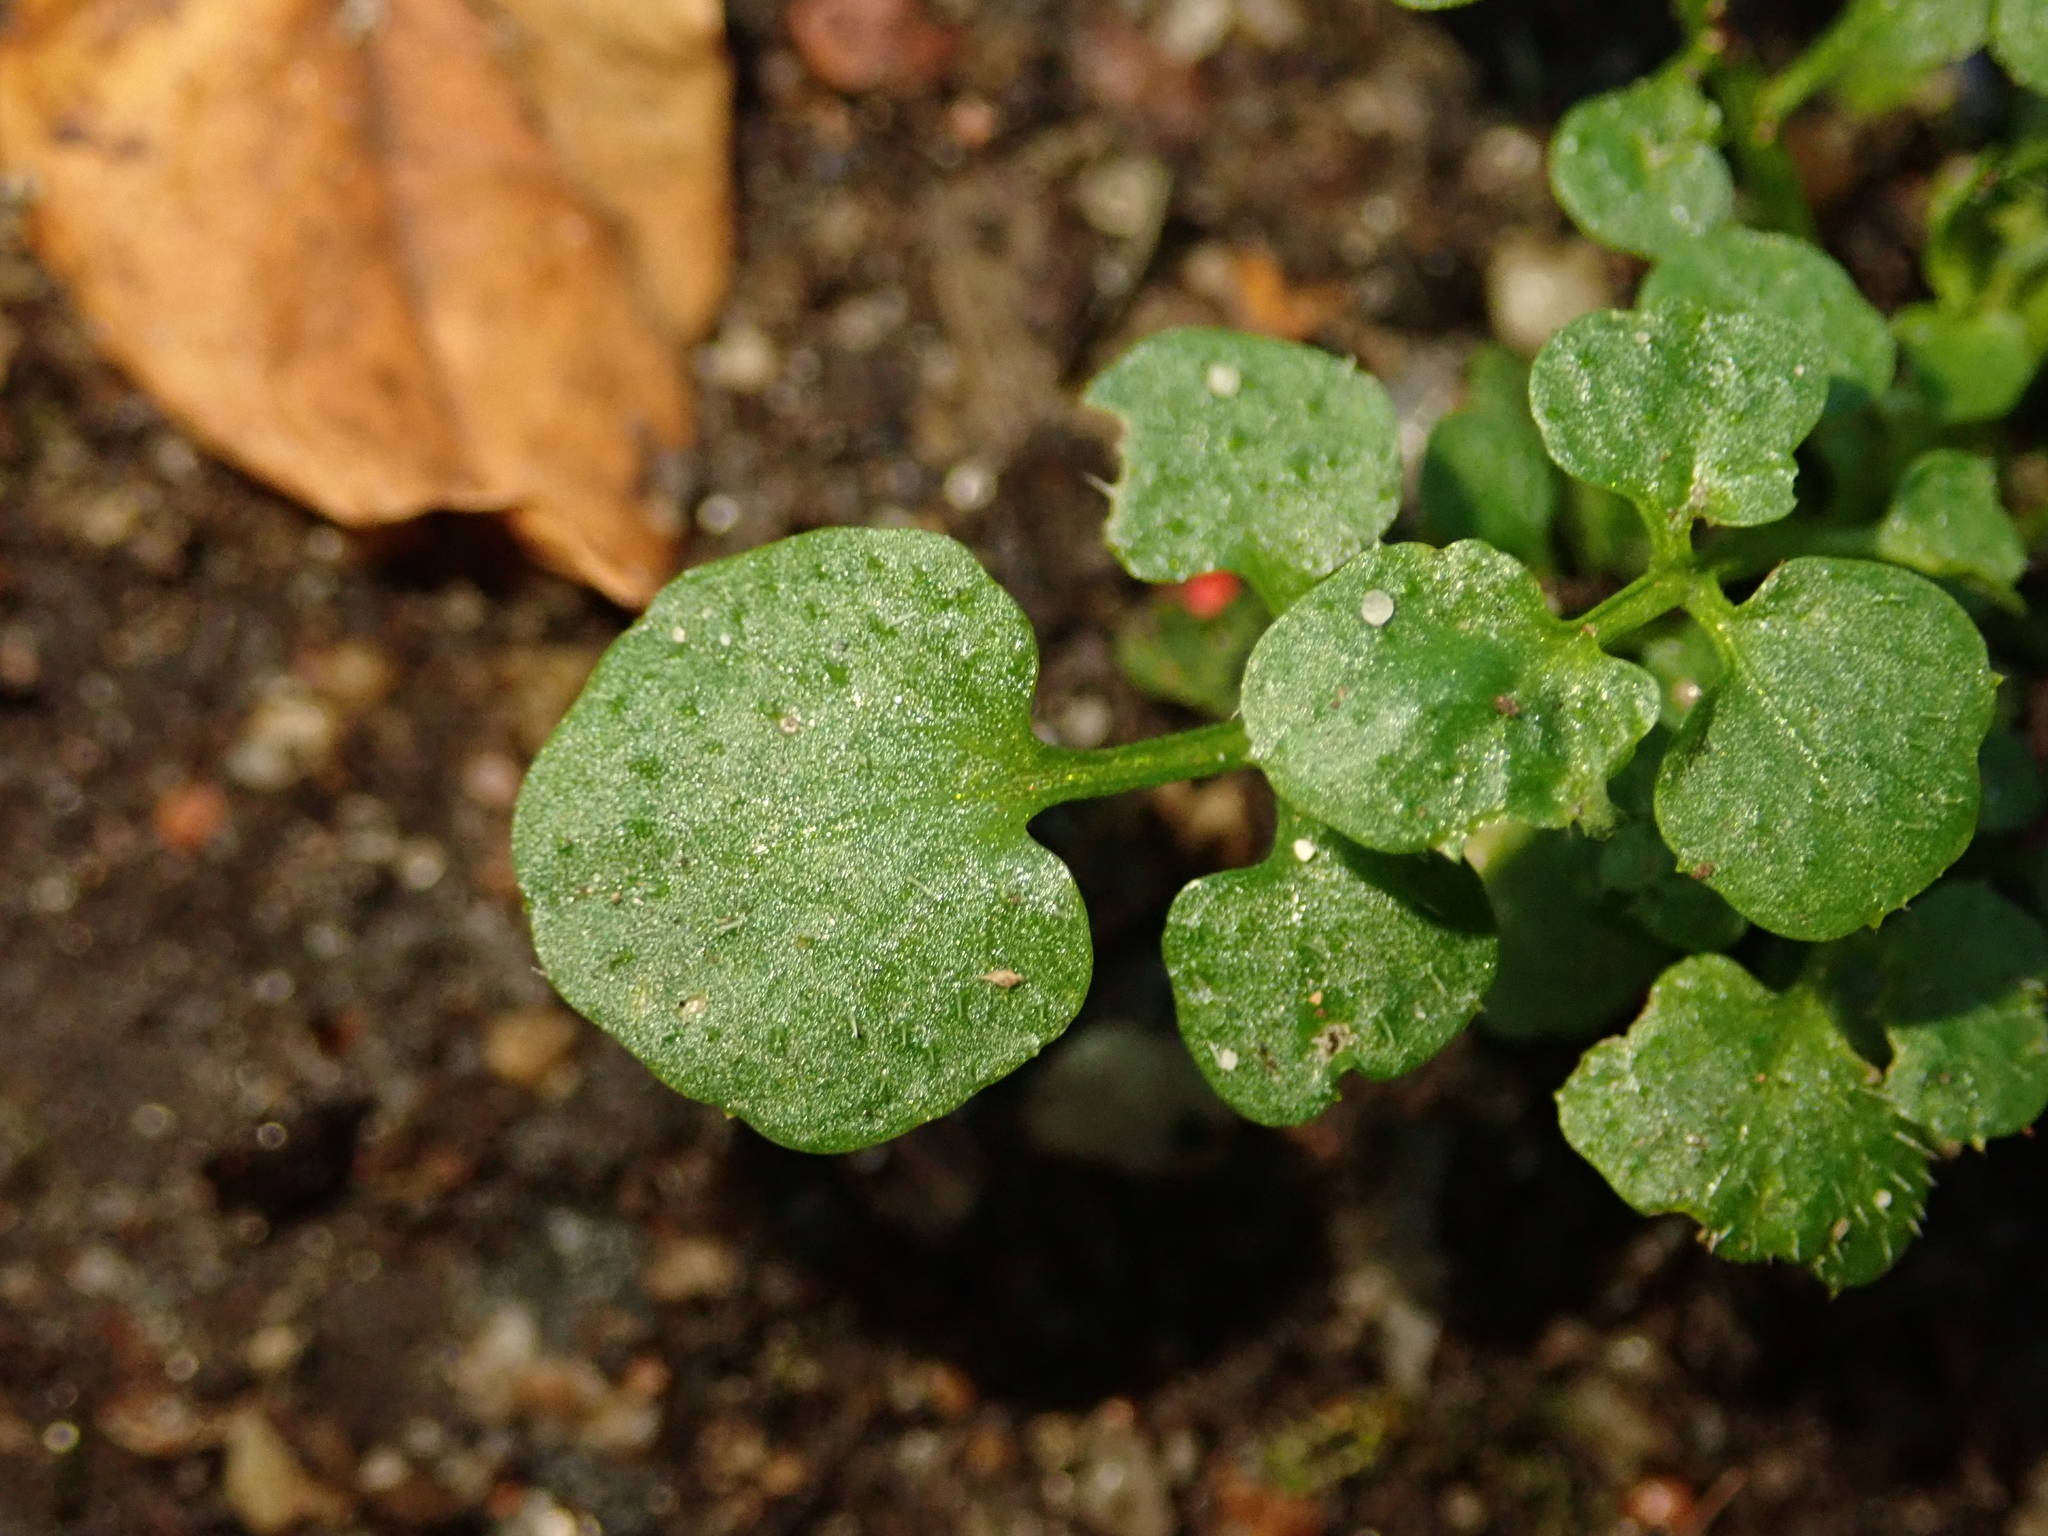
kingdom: Plantae
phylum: Tracheophyta
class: Magnoliopsida
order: Brassicales
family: Brassicaceae
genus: Cardamine
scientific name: Cardamine hirsuta
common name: Hairy bittercress
